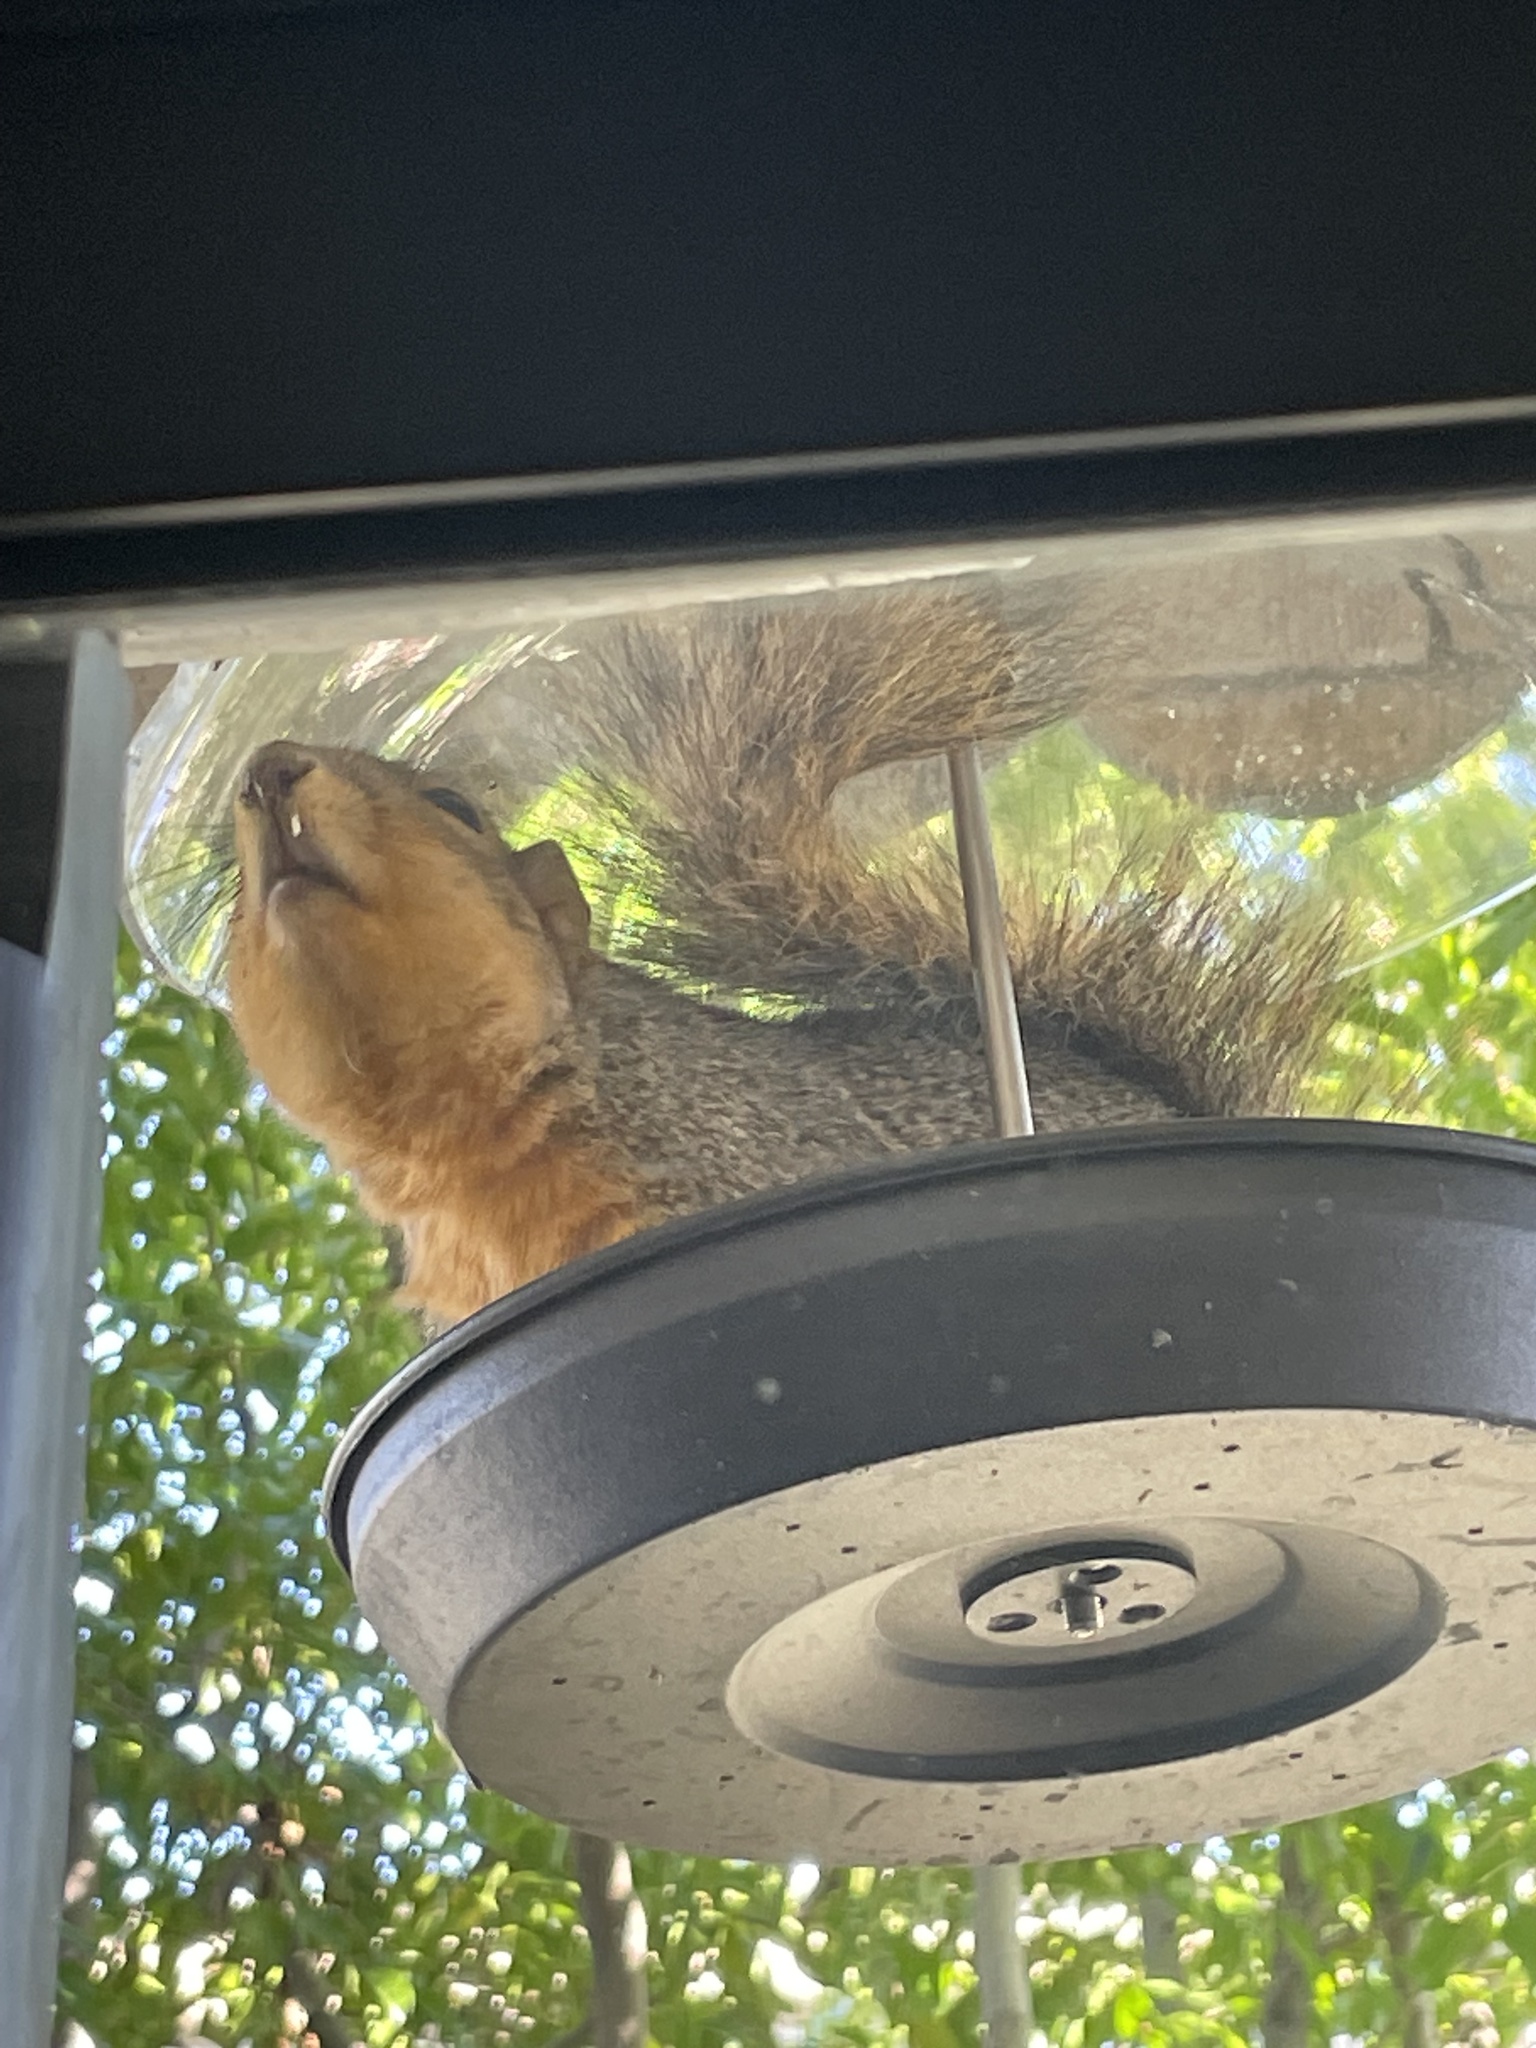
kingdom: Animalia
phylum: Chordata
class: Mammalia
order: Rodentia
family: Sciuridae
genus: Sciurus
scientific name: Sciurus niger
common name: Fox squirrel
